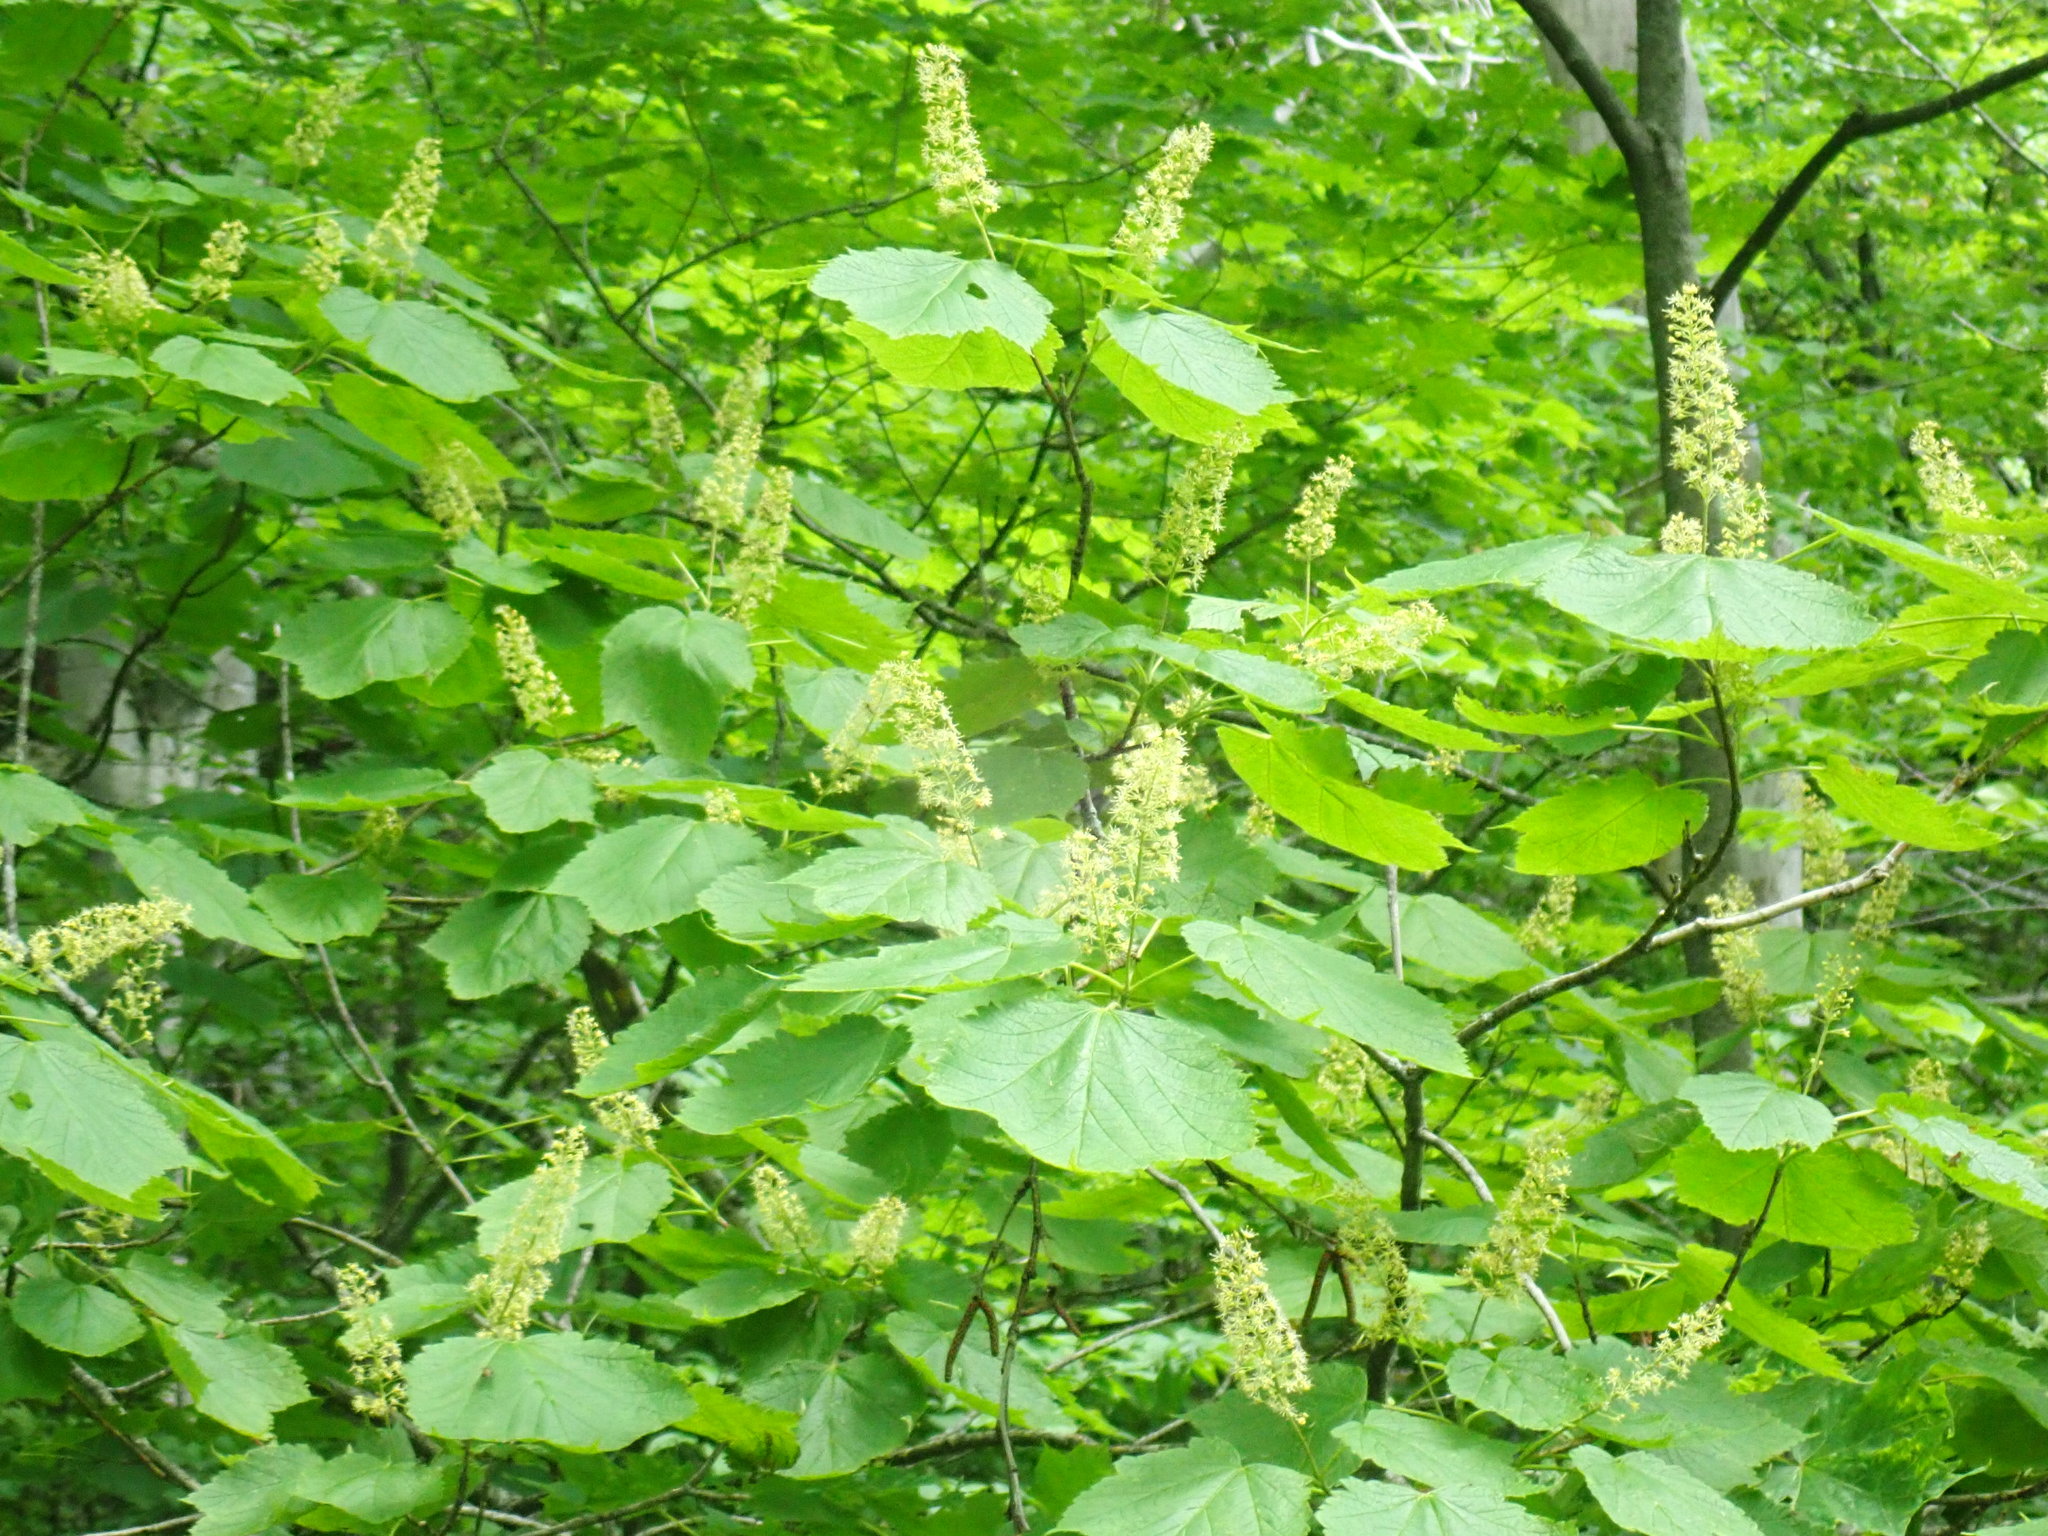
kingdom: Plantae
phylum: Tracheophyta
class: Magnoliopsida
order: Sapindales
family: Sapindaceae
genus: Acer
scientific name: Acer spicatum
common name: Mountain maple
